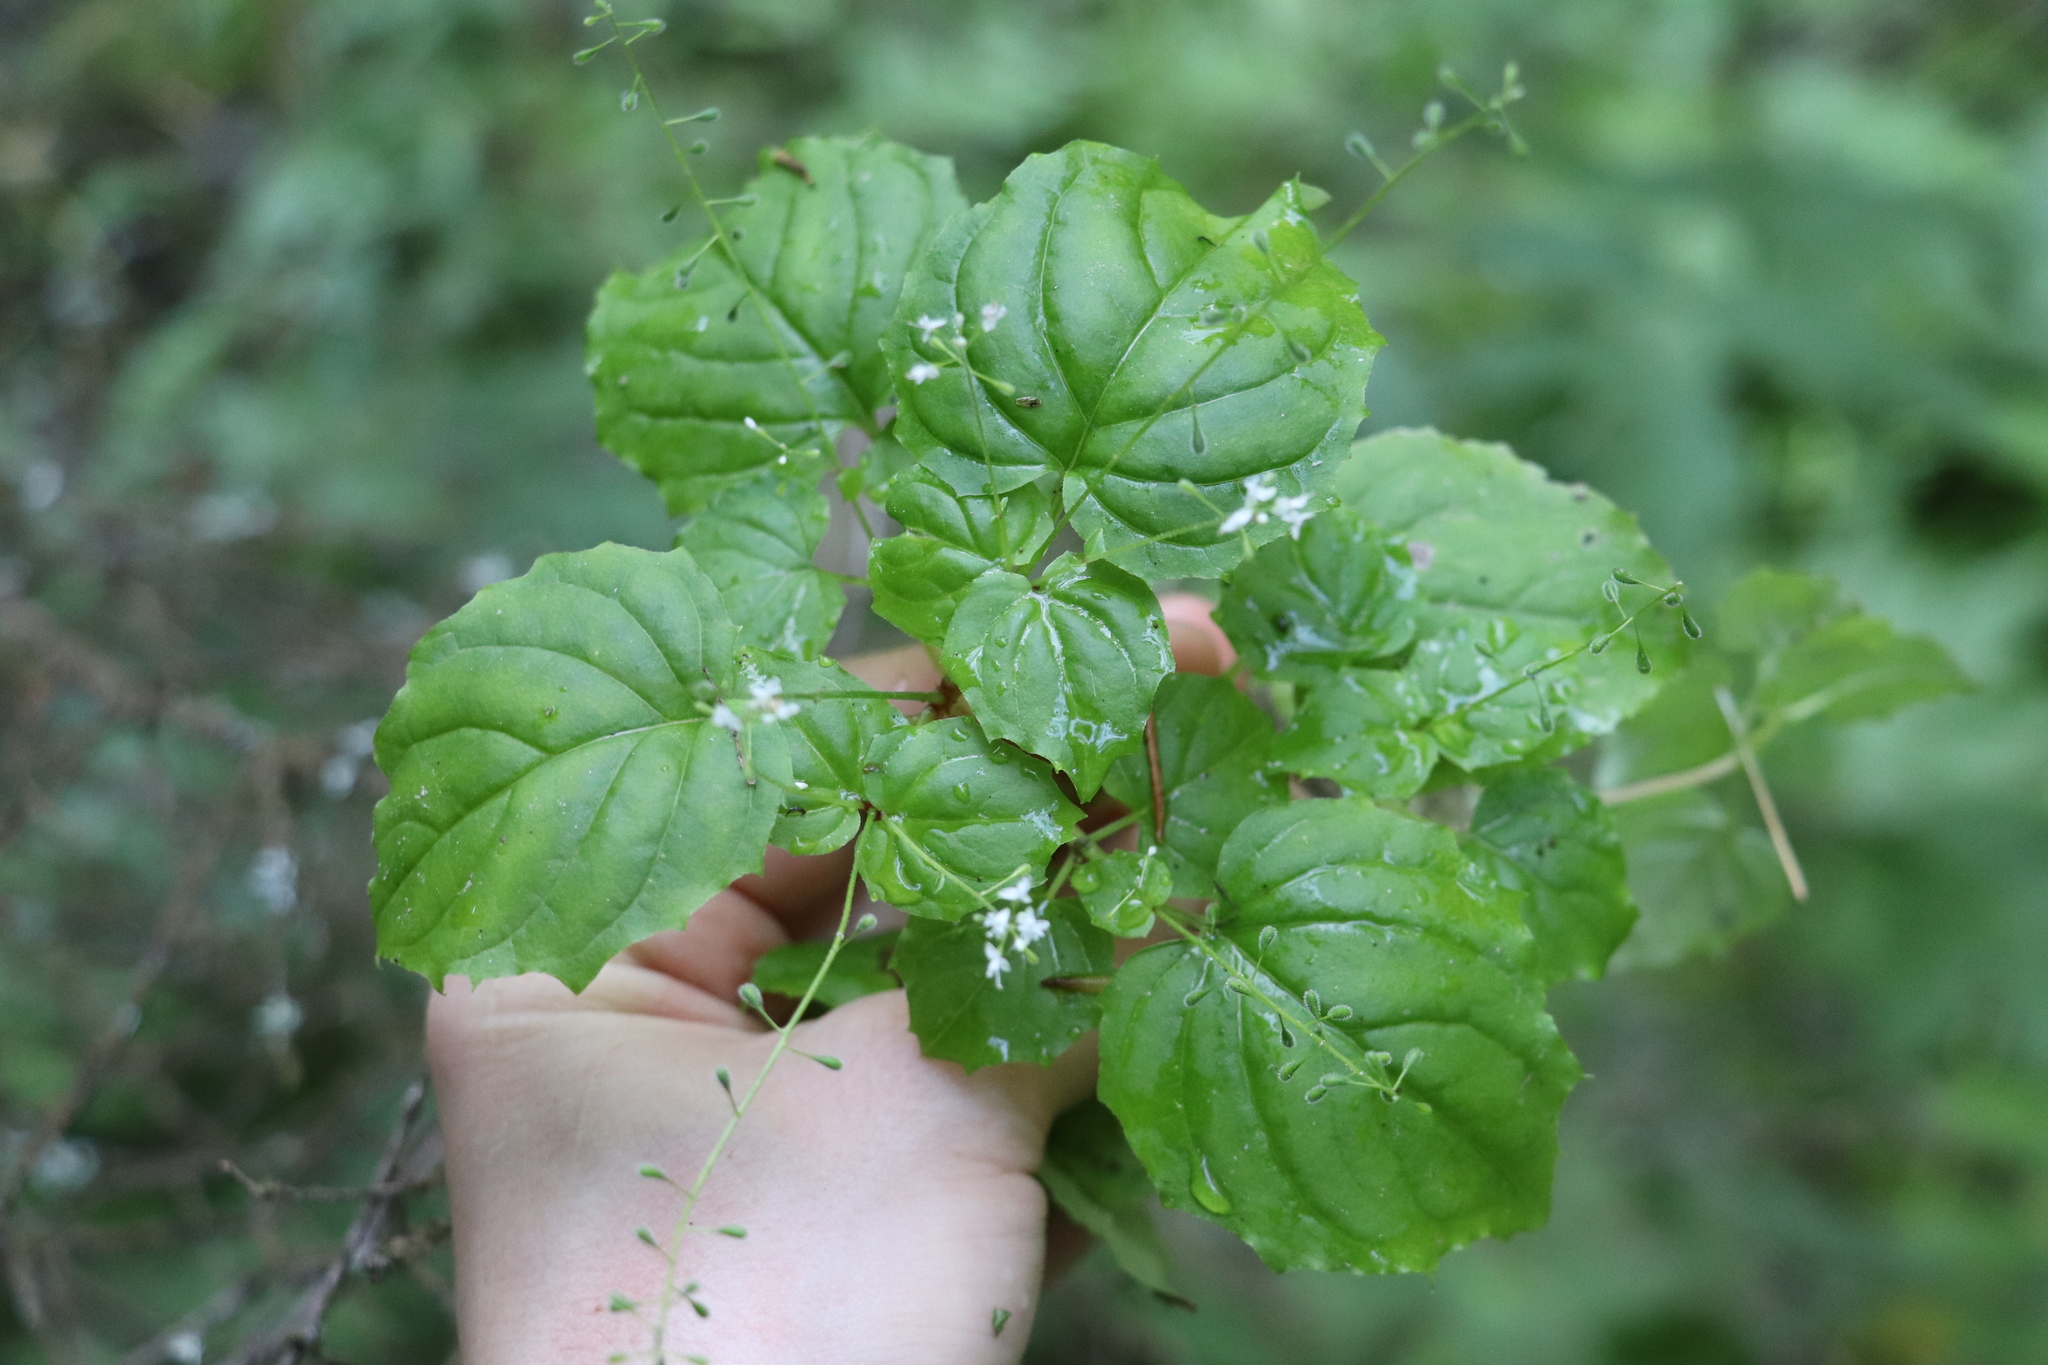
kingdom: Plantae
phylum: Tracheophyta
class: Magnoliopsida
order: Myrtales
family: Onagraceae
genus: Circaea
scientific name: Circaea alpina
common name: Alpine enchanter's-nightshade
